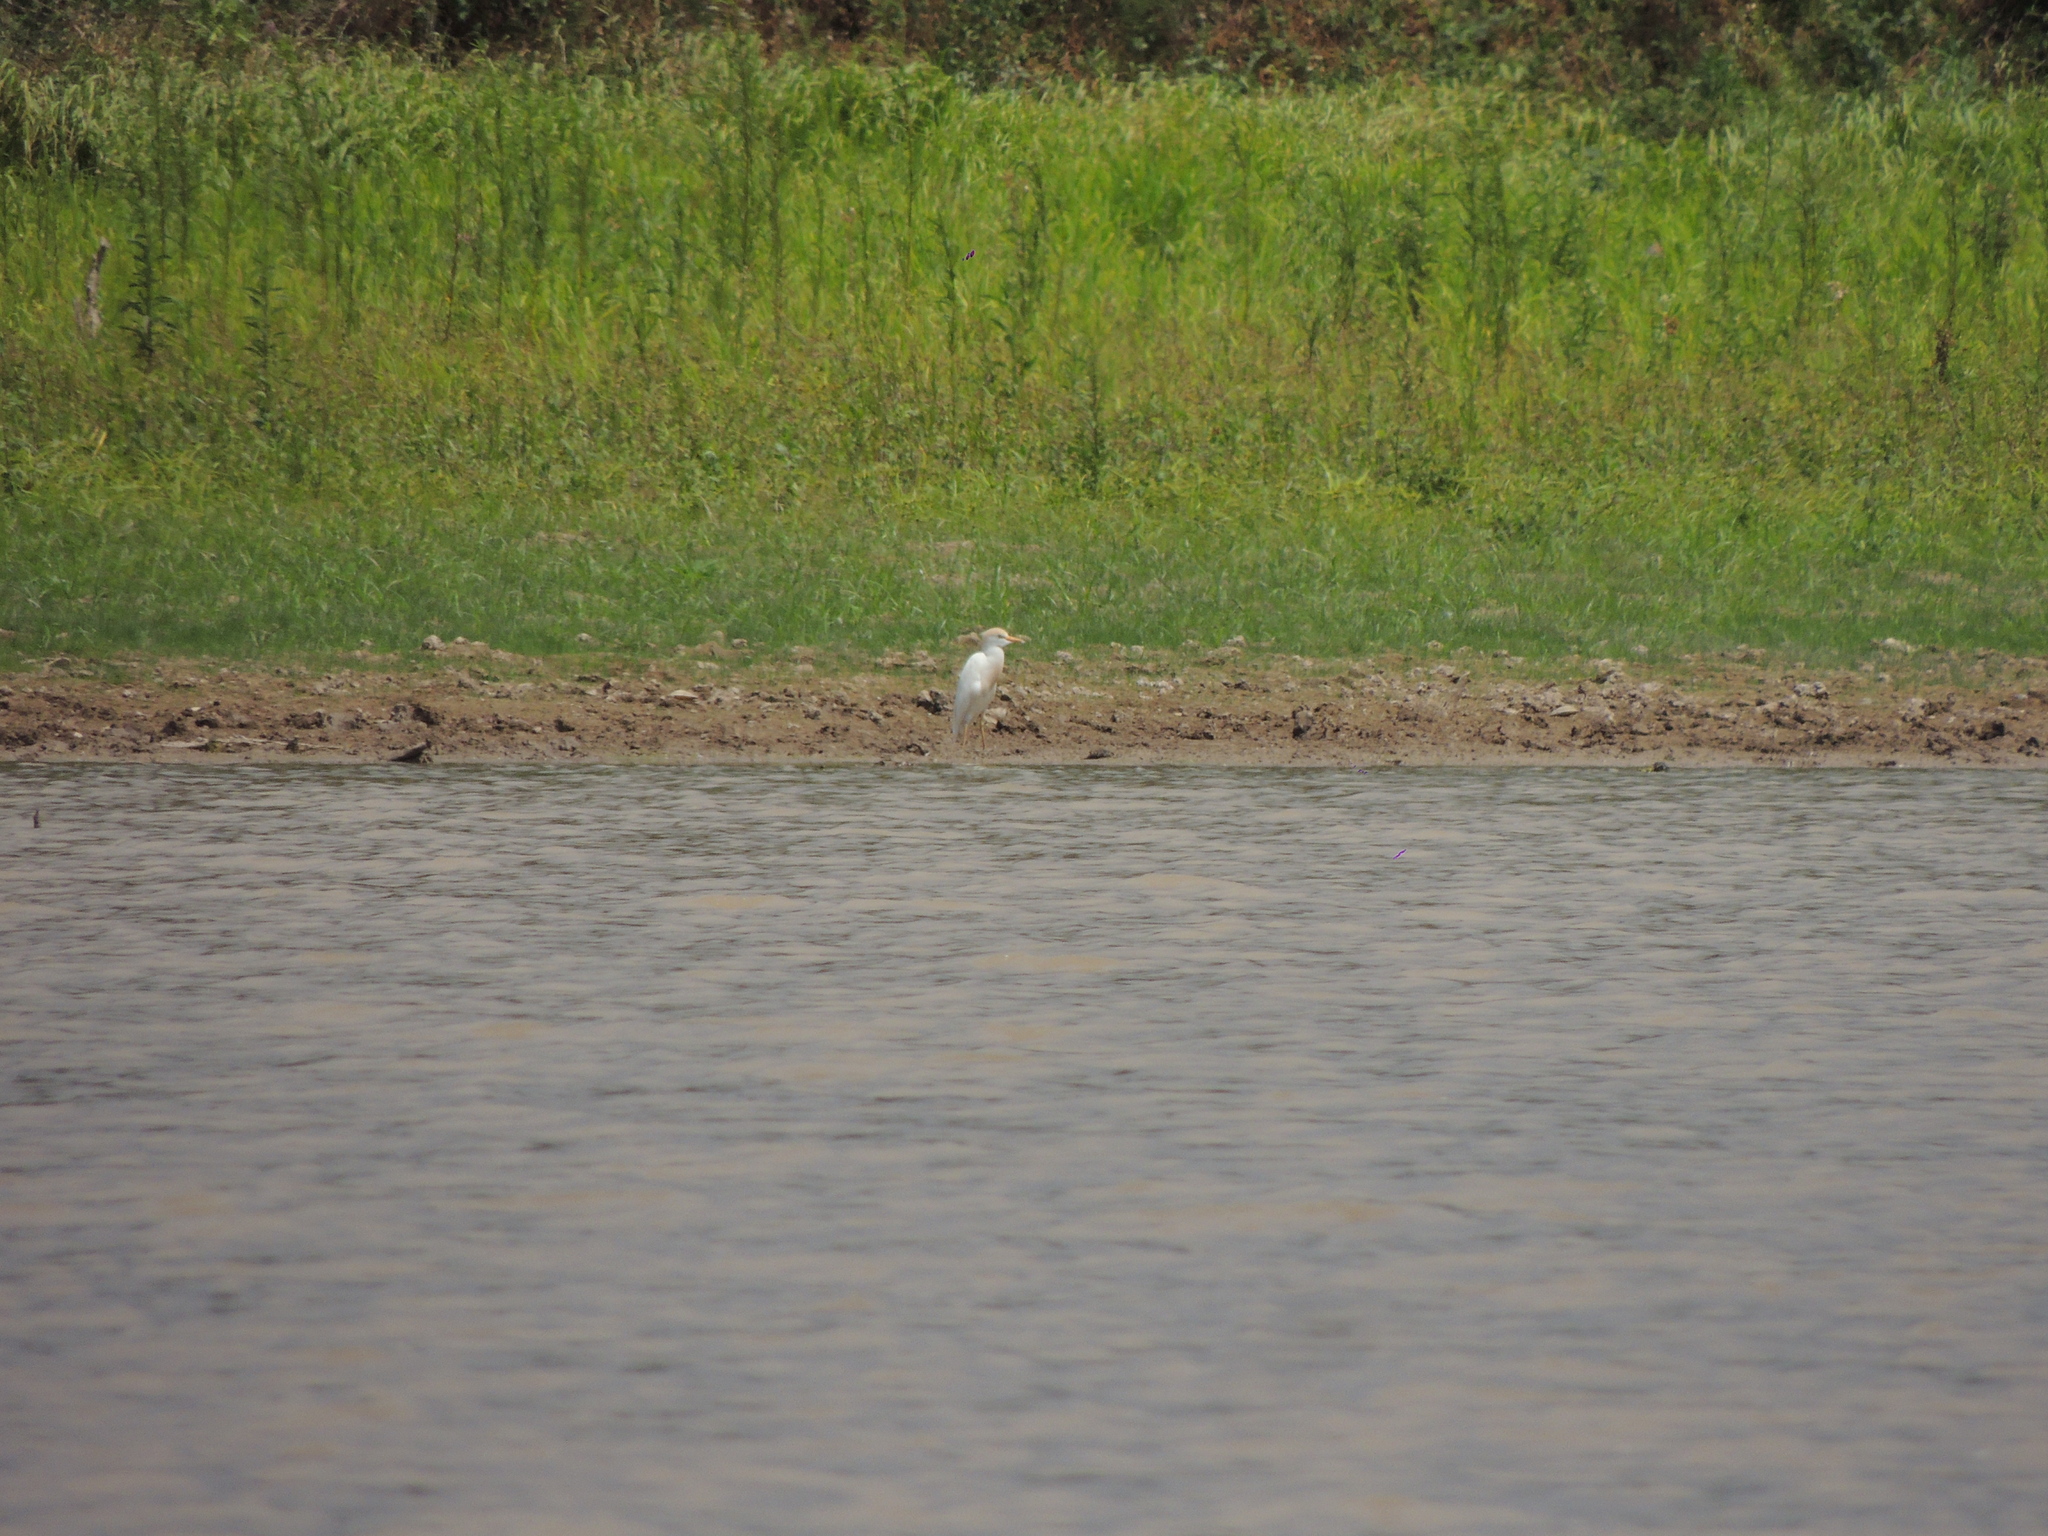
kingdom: Animalia
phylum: Chordata
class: Aves
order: Pelecaniformes
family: Ardeidae
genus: Bubulcus
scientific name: Bubulcus ibis
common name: Cattle egret
